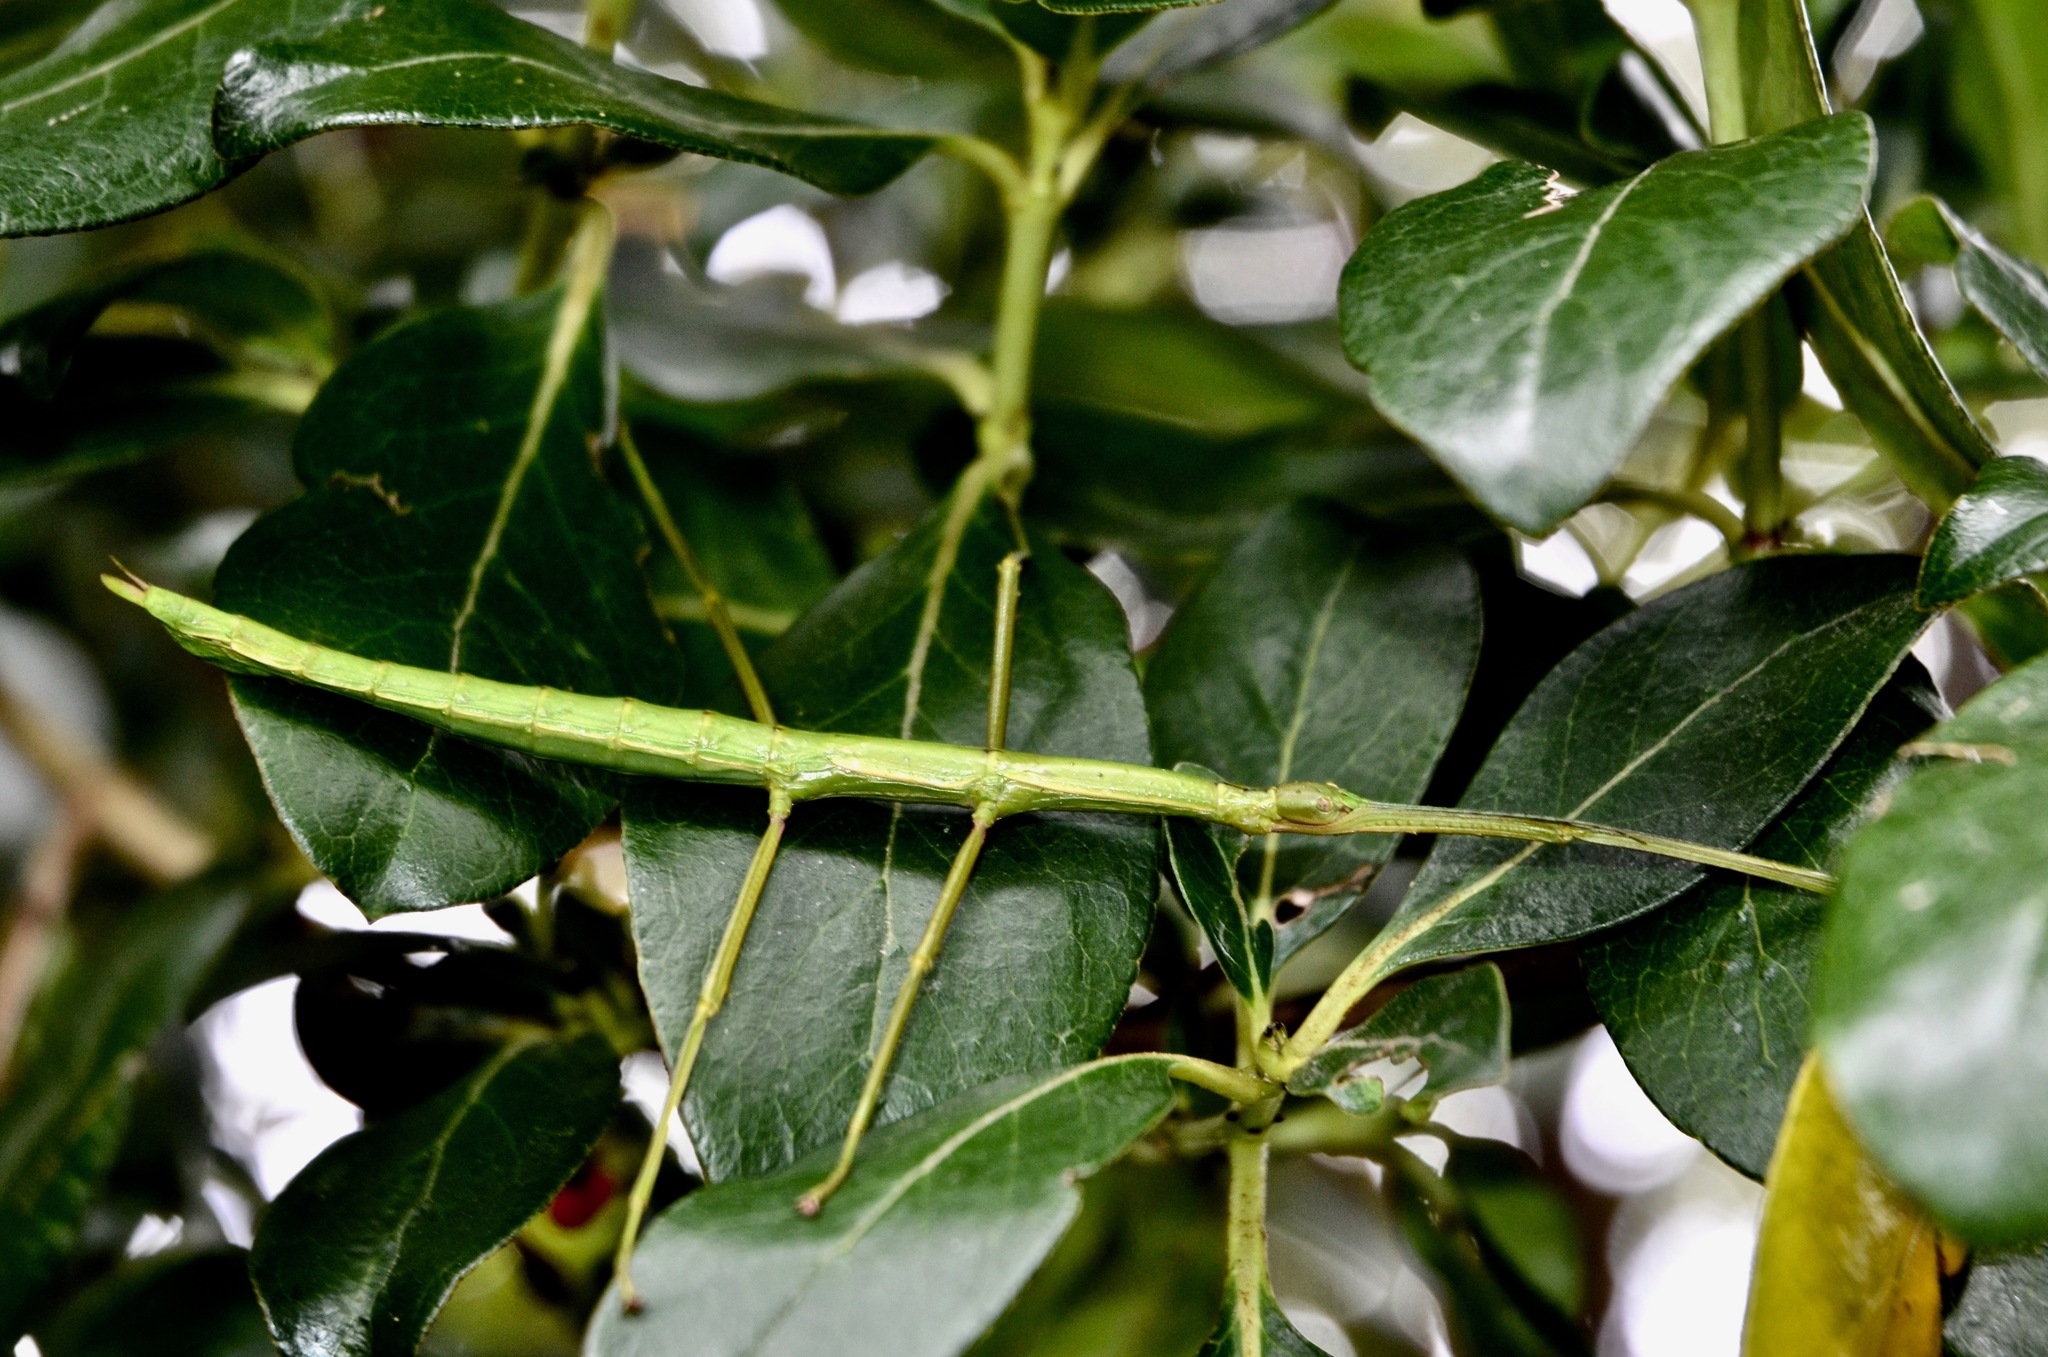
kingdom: Animalia
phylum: Arthropoda
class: Insecta
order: Phasmida
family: Phasmatidae
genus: Acanthoxyla
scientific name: Acanthoxyla inermis
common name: Unarmed stick insect
